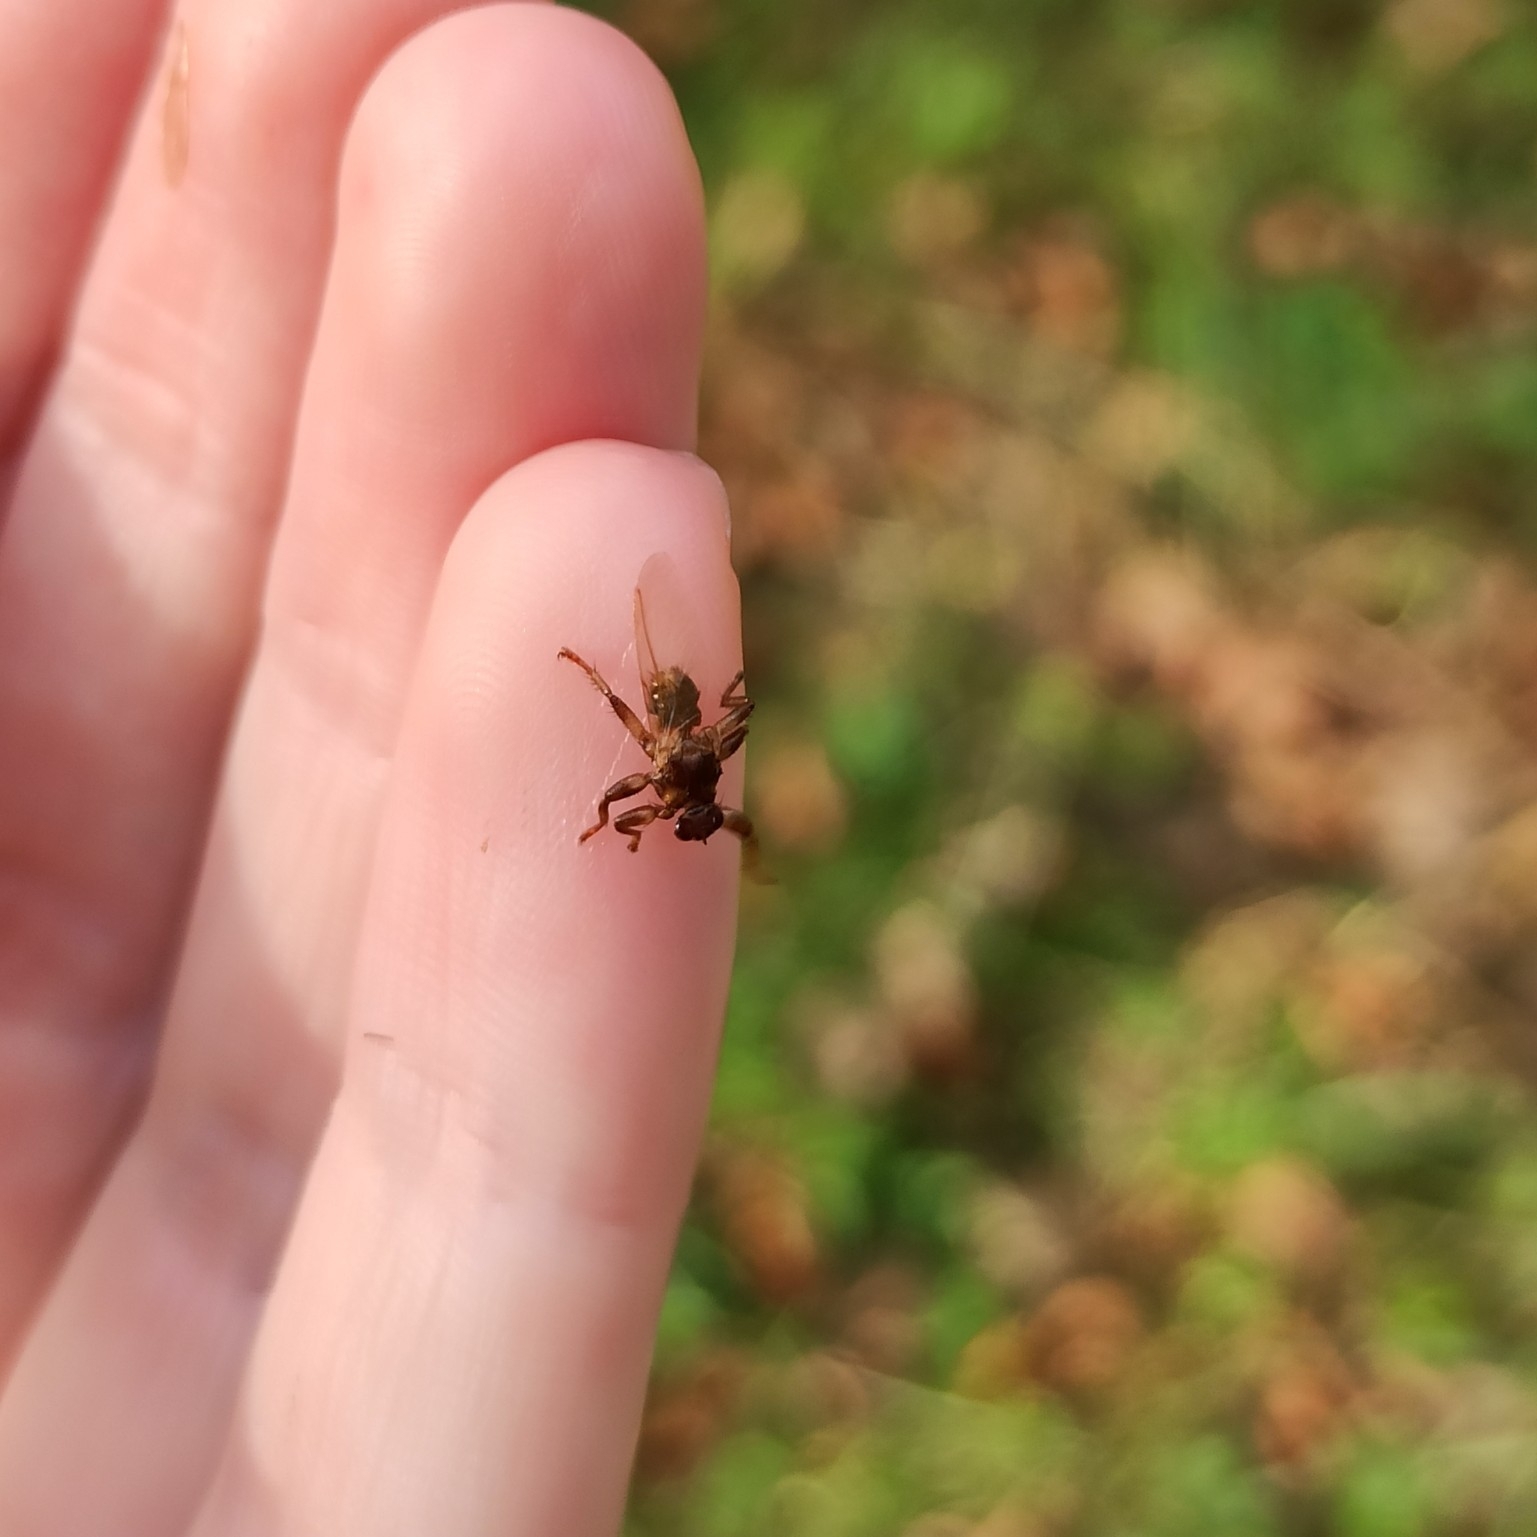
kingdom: Animalia
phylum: Arthropoda
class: Insecta
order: Diptera
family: Hippoboscidae
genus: Lipoptena
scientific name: Lipoptena cervi
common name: Deer ked
